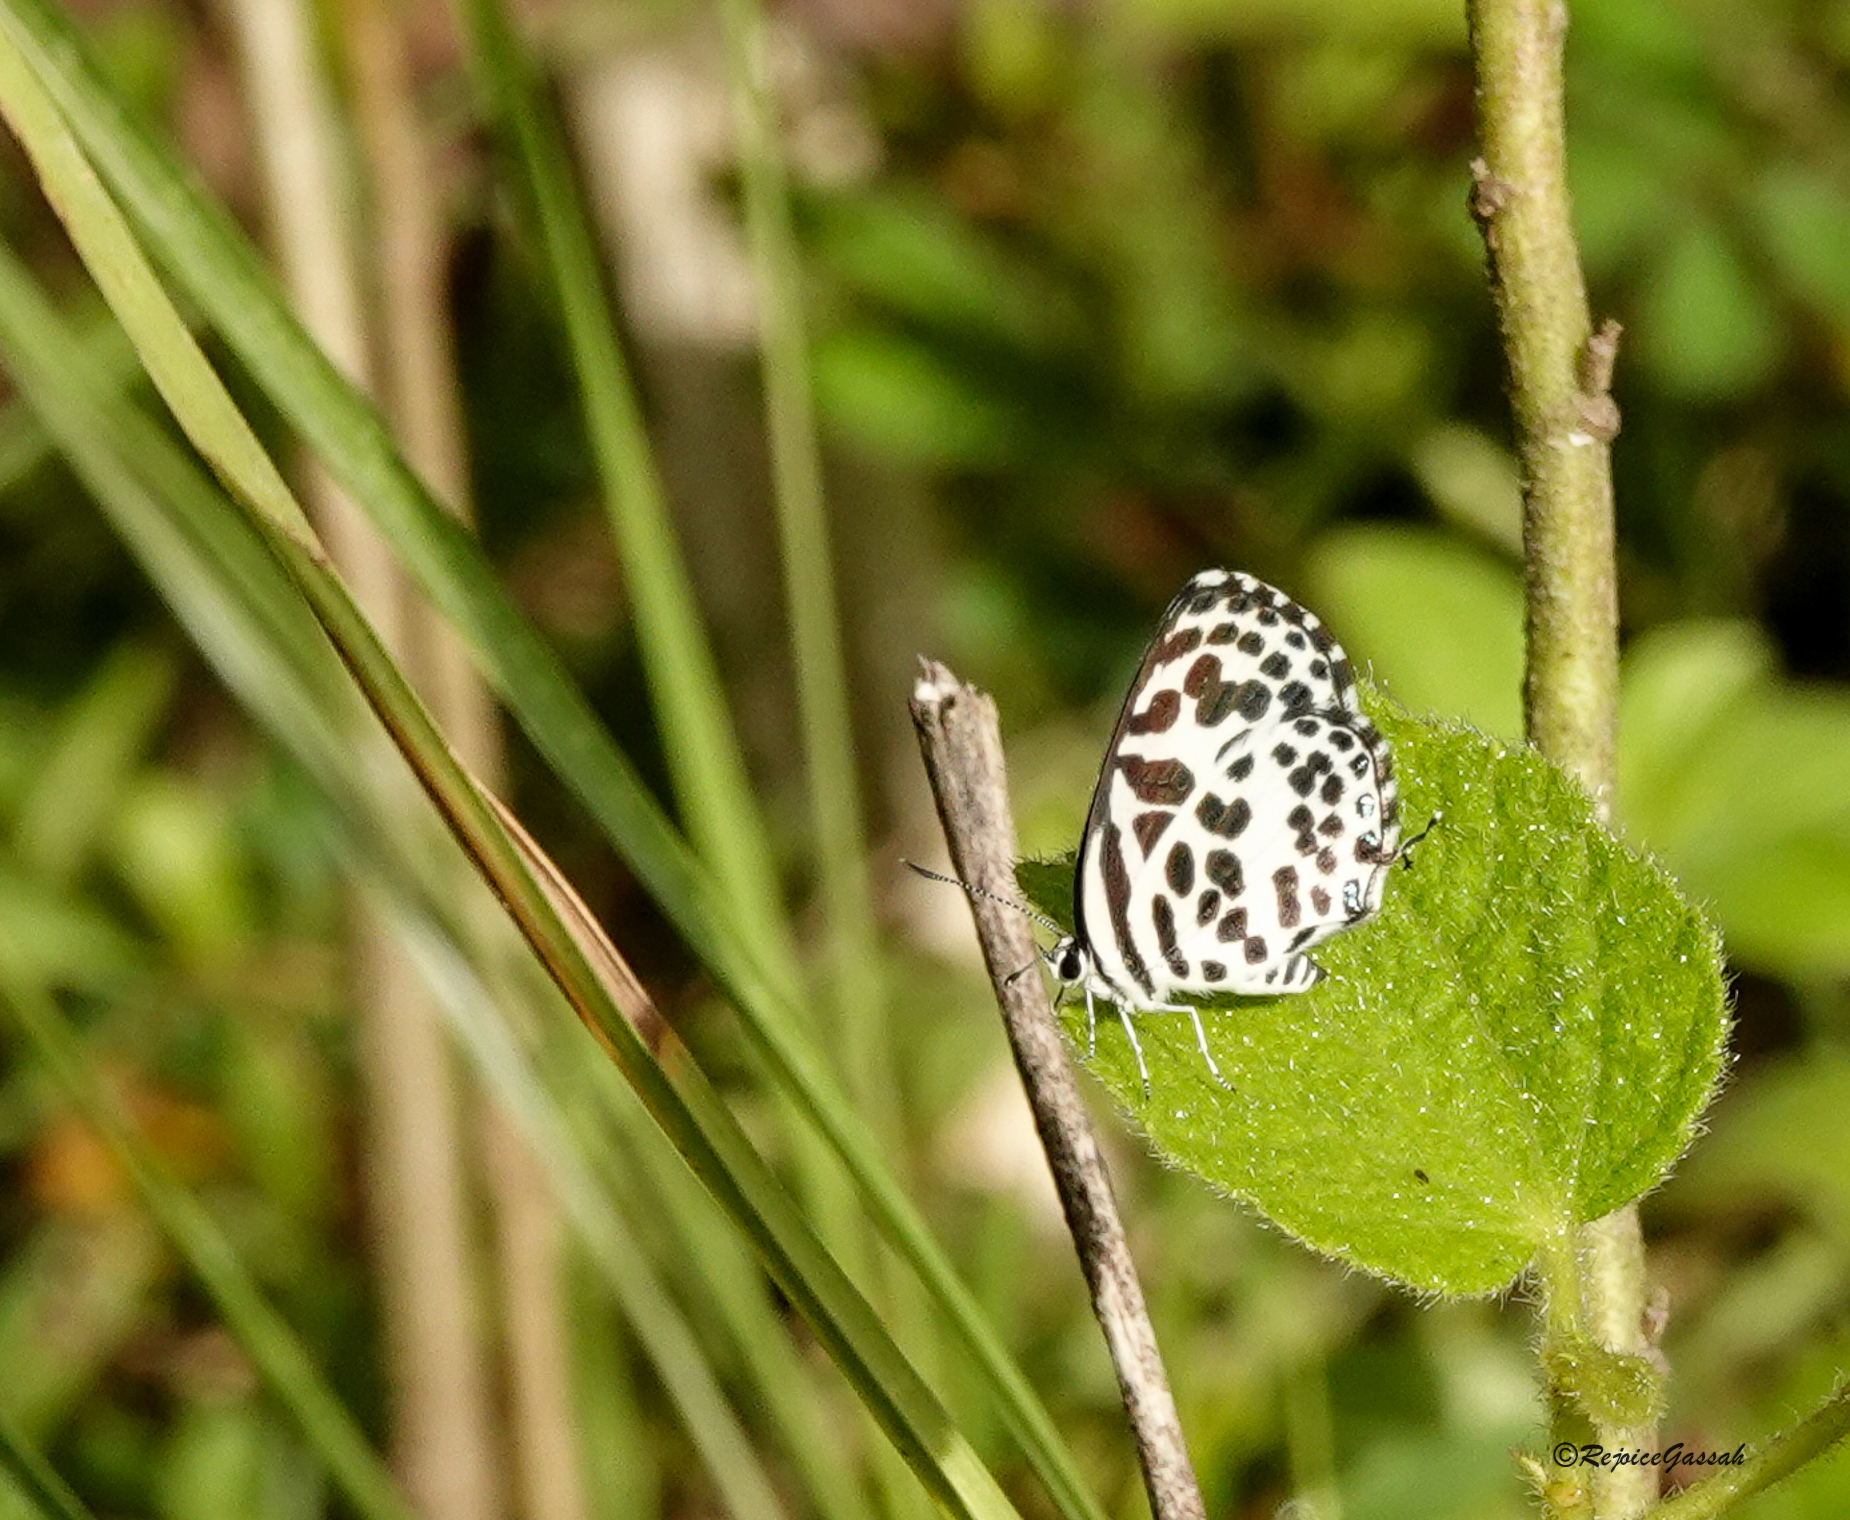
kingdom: Animalia
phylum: Arthropoda
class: Insecta
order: Lepidoptera
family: Lycaenidae
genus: Castalius
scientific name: Castalius rosimon
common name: Common pierrot
